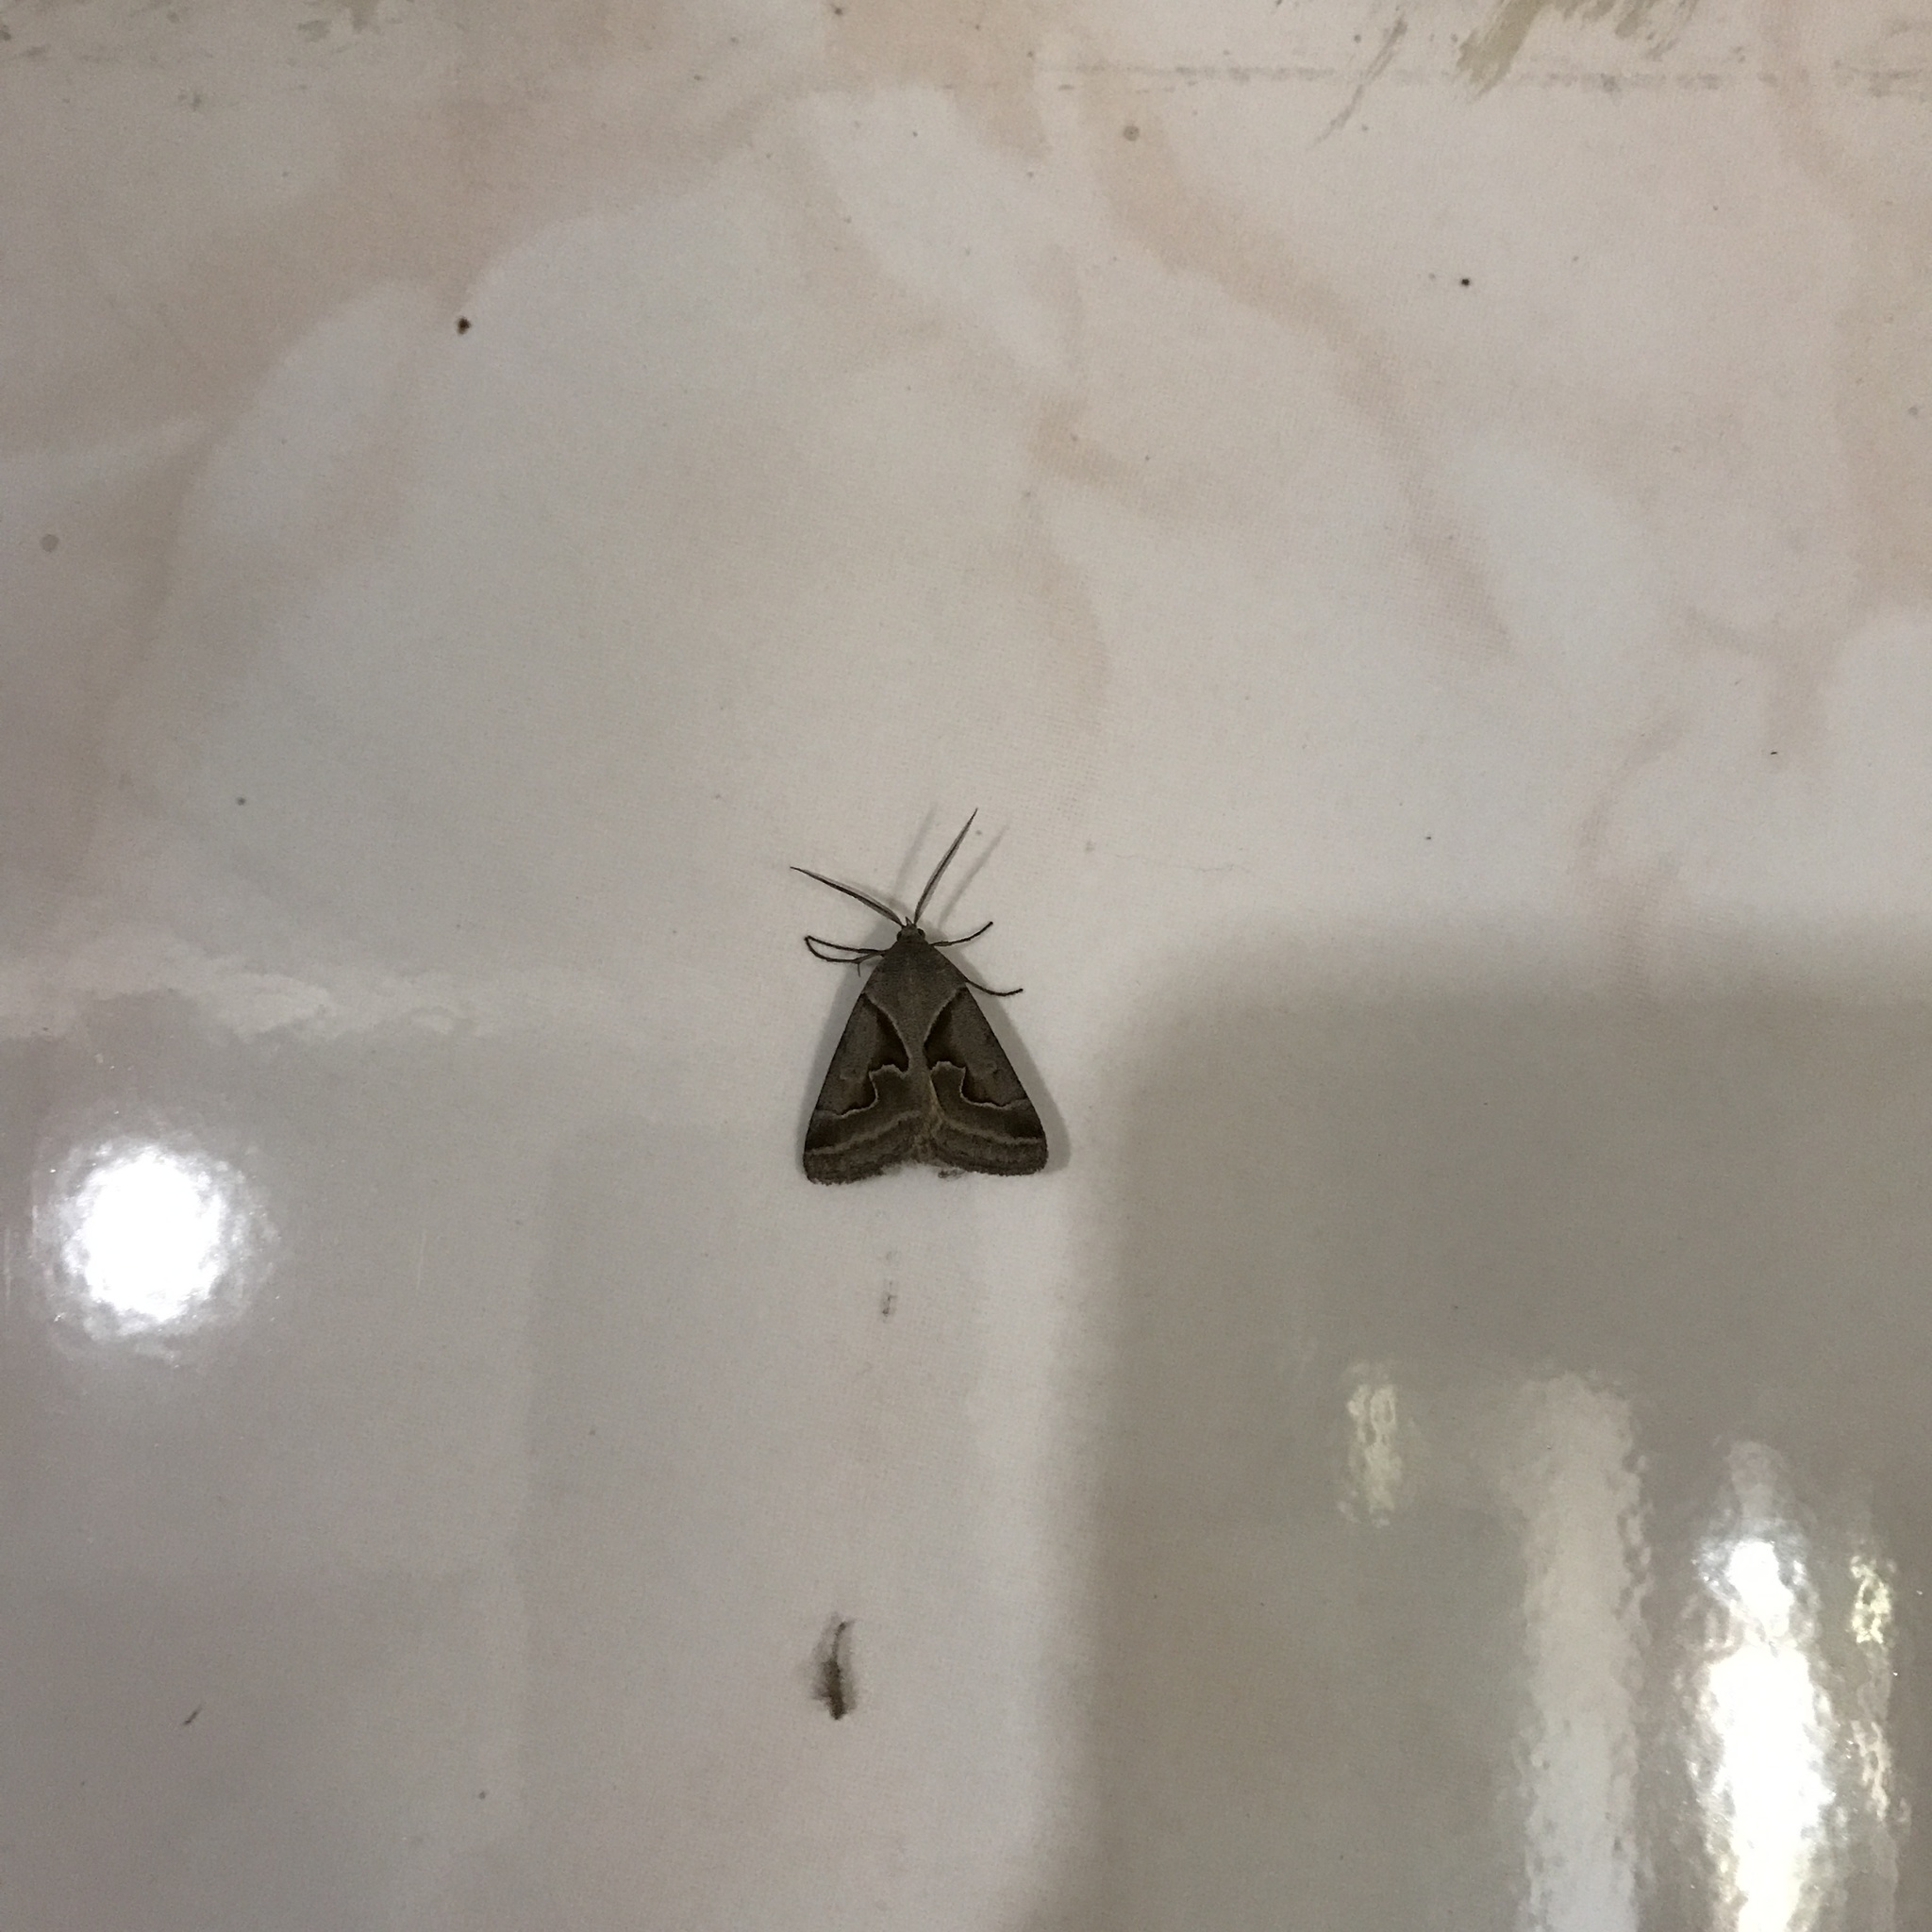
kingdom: Animalia
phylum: Arthropoda
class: Insecta
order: Lepidoptera
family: Erebidae
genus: Caenurgia
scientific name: Caenurgia runica
